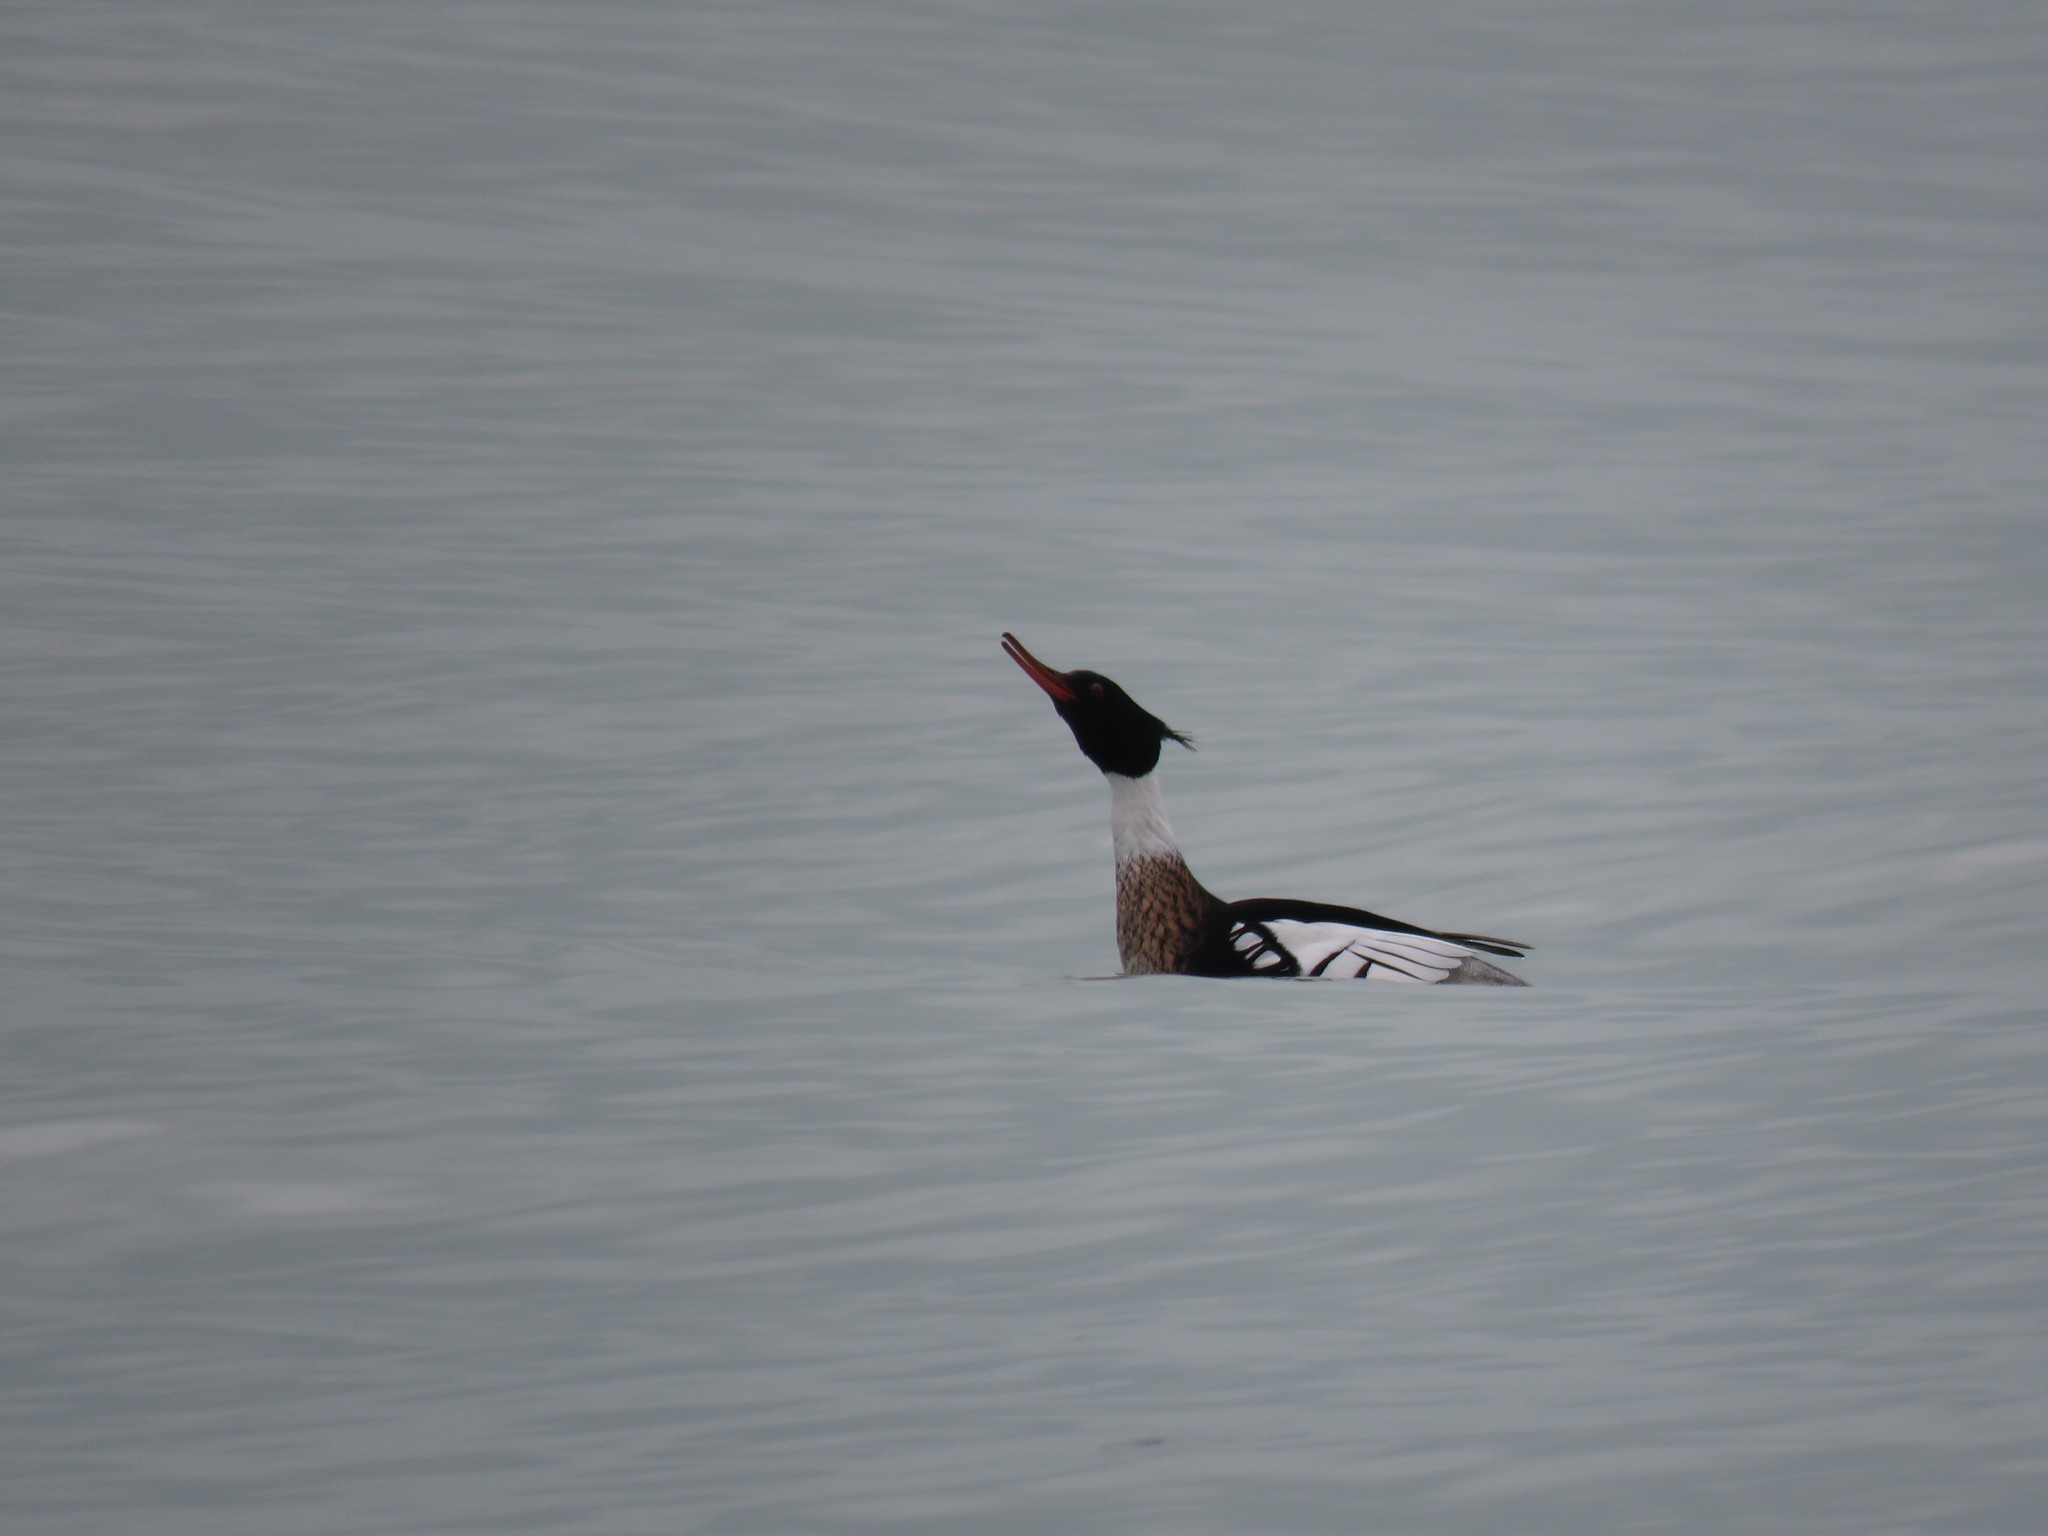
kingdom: Animalia
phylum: Chordata
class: Aves
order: Anseriformes
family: Anatidae
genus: Mergus
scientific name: Mergus serrator
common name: Red-breasted merganser
